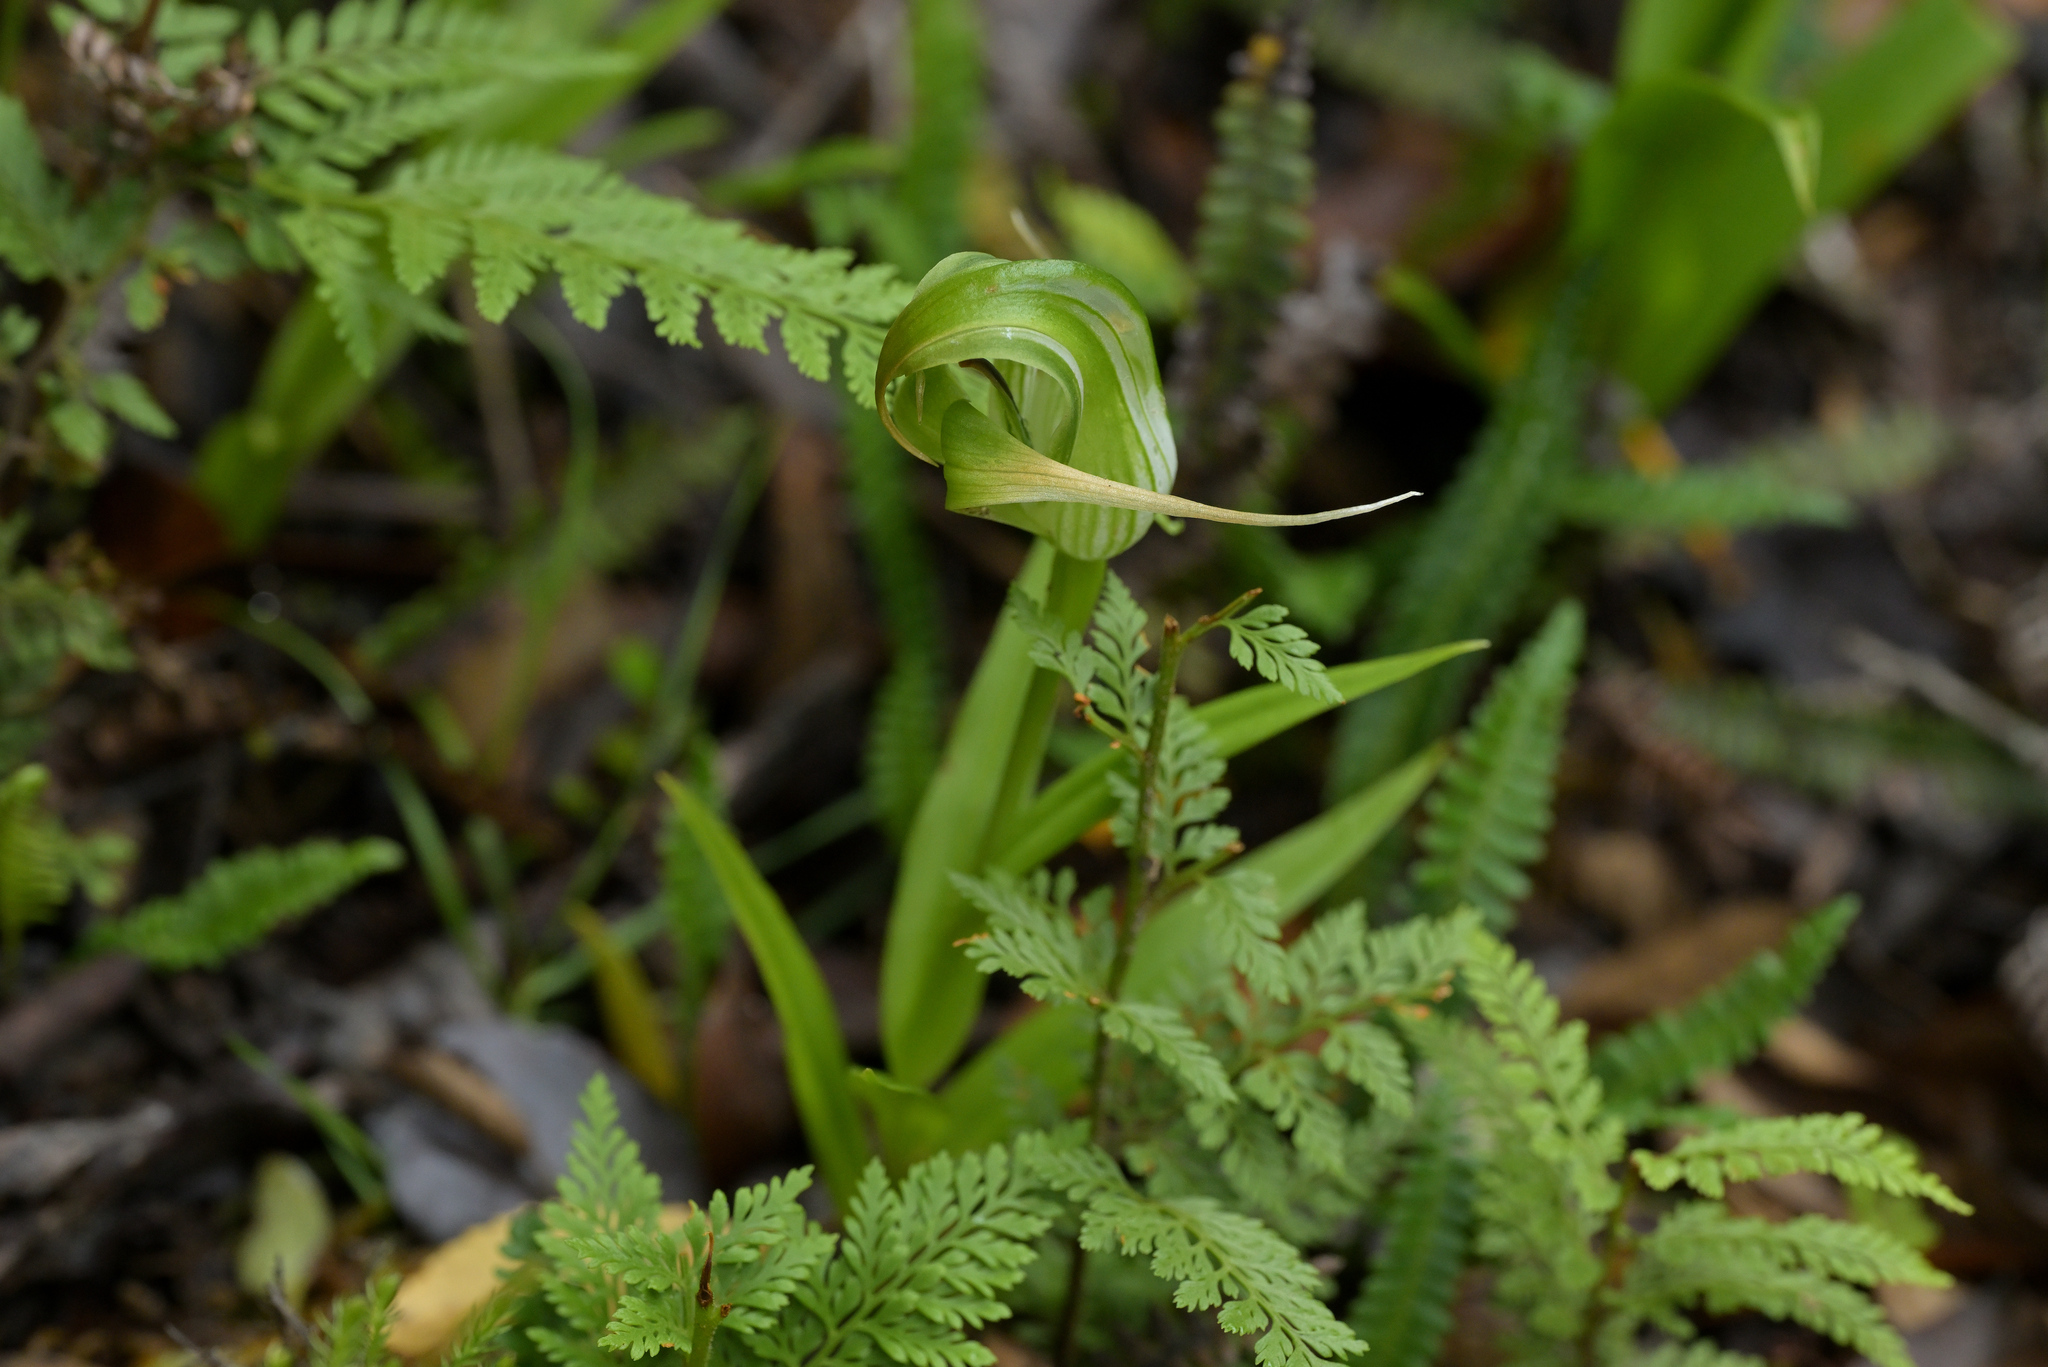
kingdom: Plantae
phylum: Tracheophyta
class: Liliopsida
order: Asparagales
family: Orchidaceae
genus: Pterostylis
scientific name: Pterostylis patens
